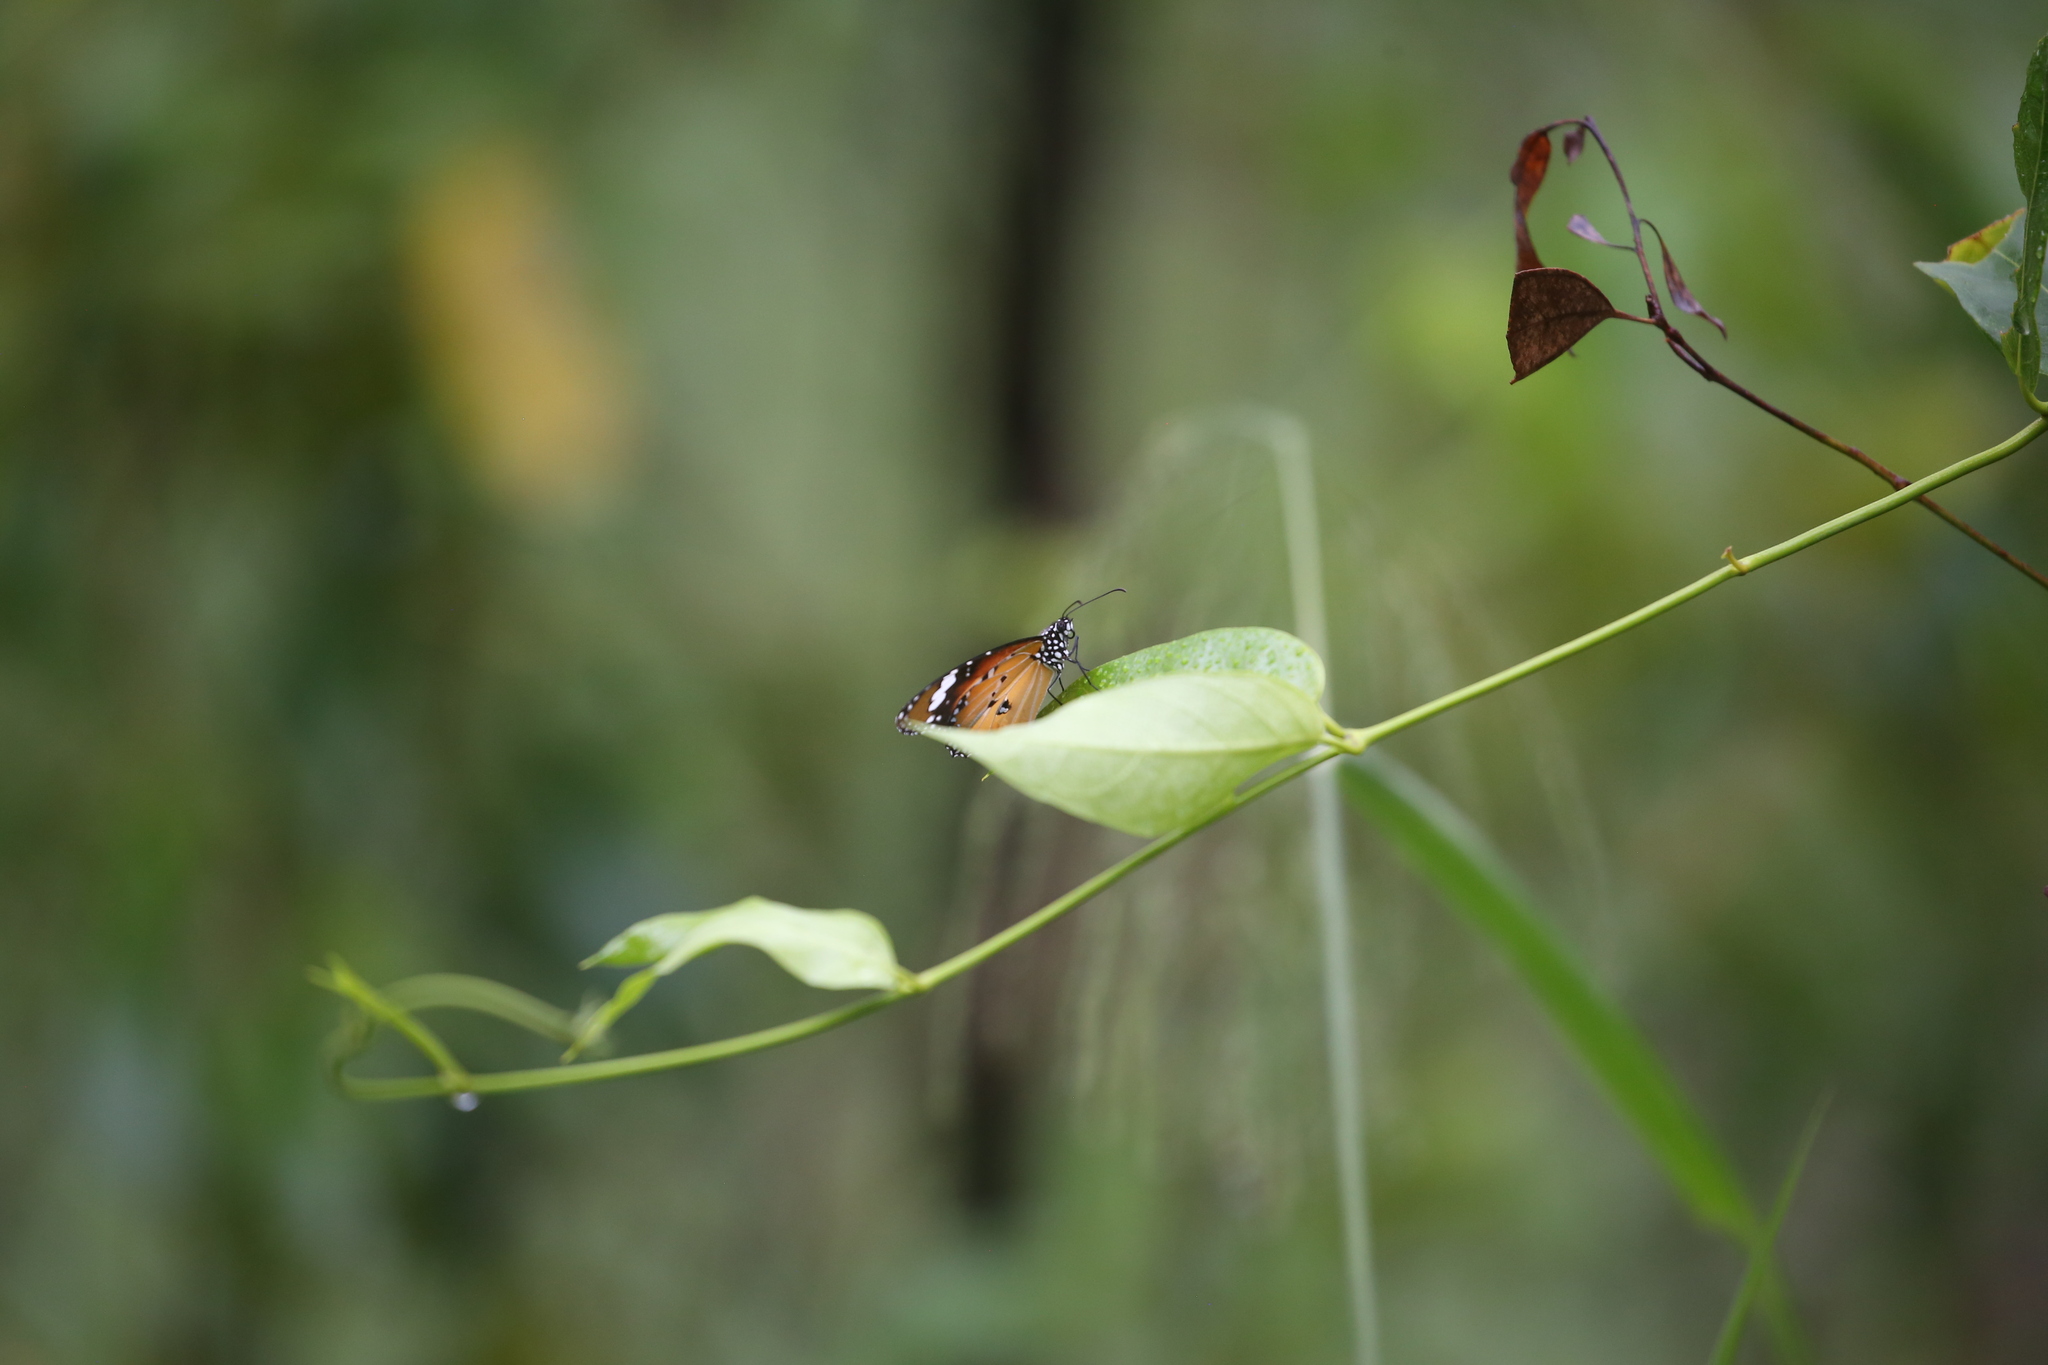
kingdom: Animalia
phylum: Arthropoda
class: Insecta
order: Lepidoptera
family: Nymphalidae
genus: Danaus
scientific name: Danaus chrysippus
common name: Plain tiger
